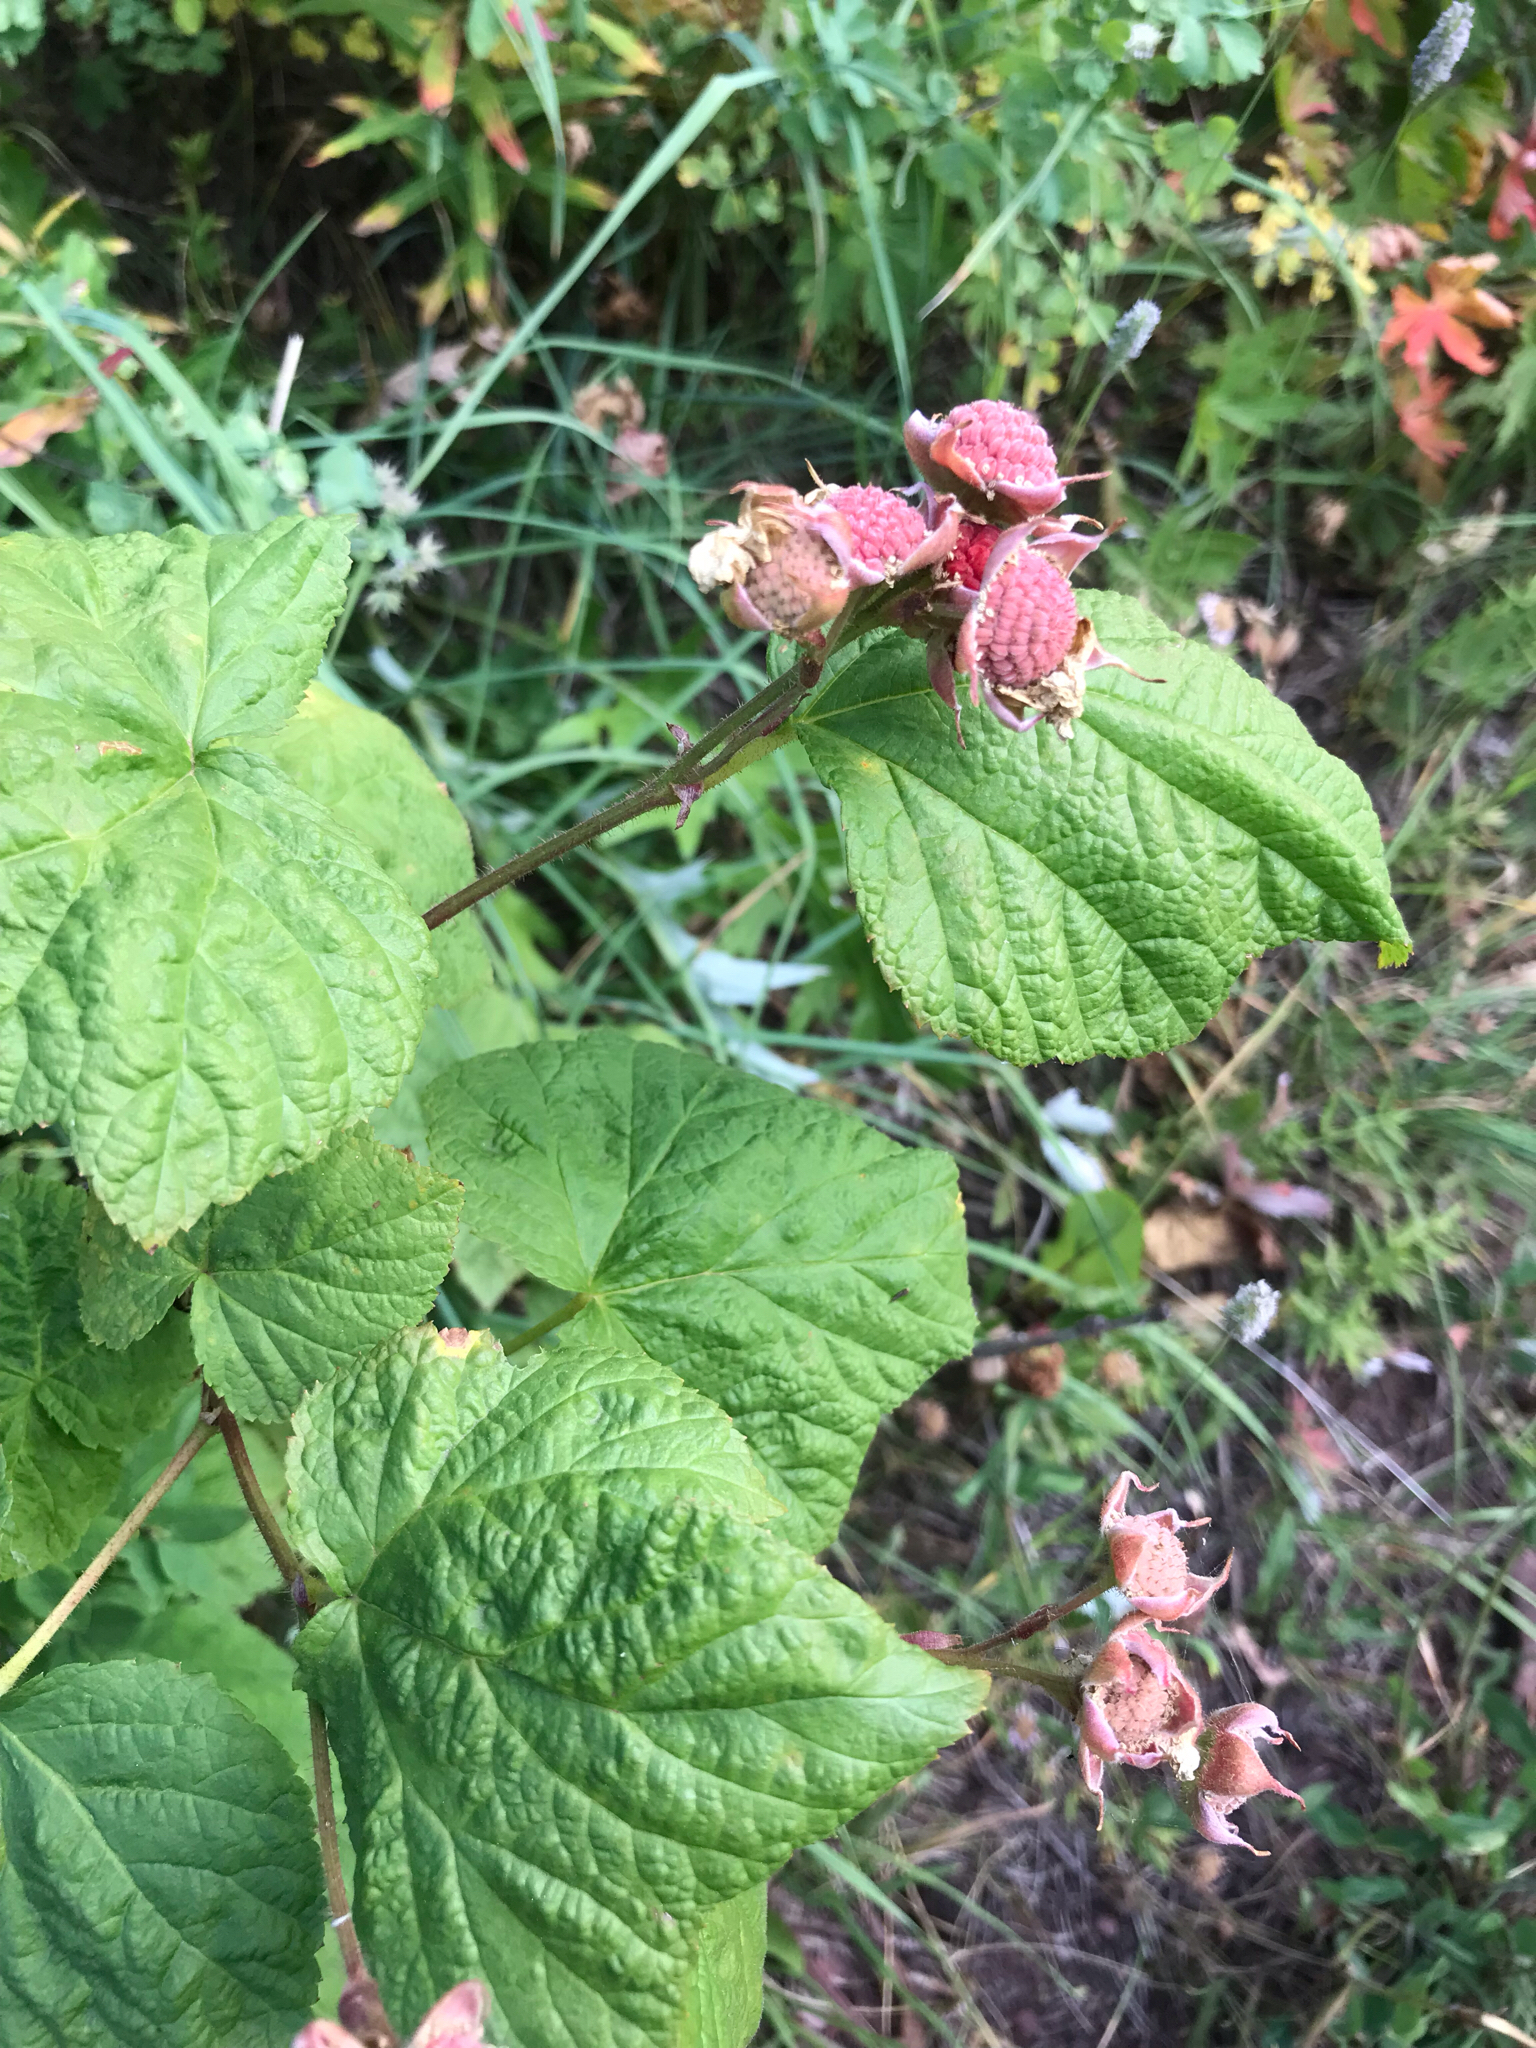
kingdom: Plantae
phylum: Tracheophyta
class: Magnoliopsida
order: Rosales
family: Rosaceae
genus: Rubus
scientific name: Rubus parviflorus
